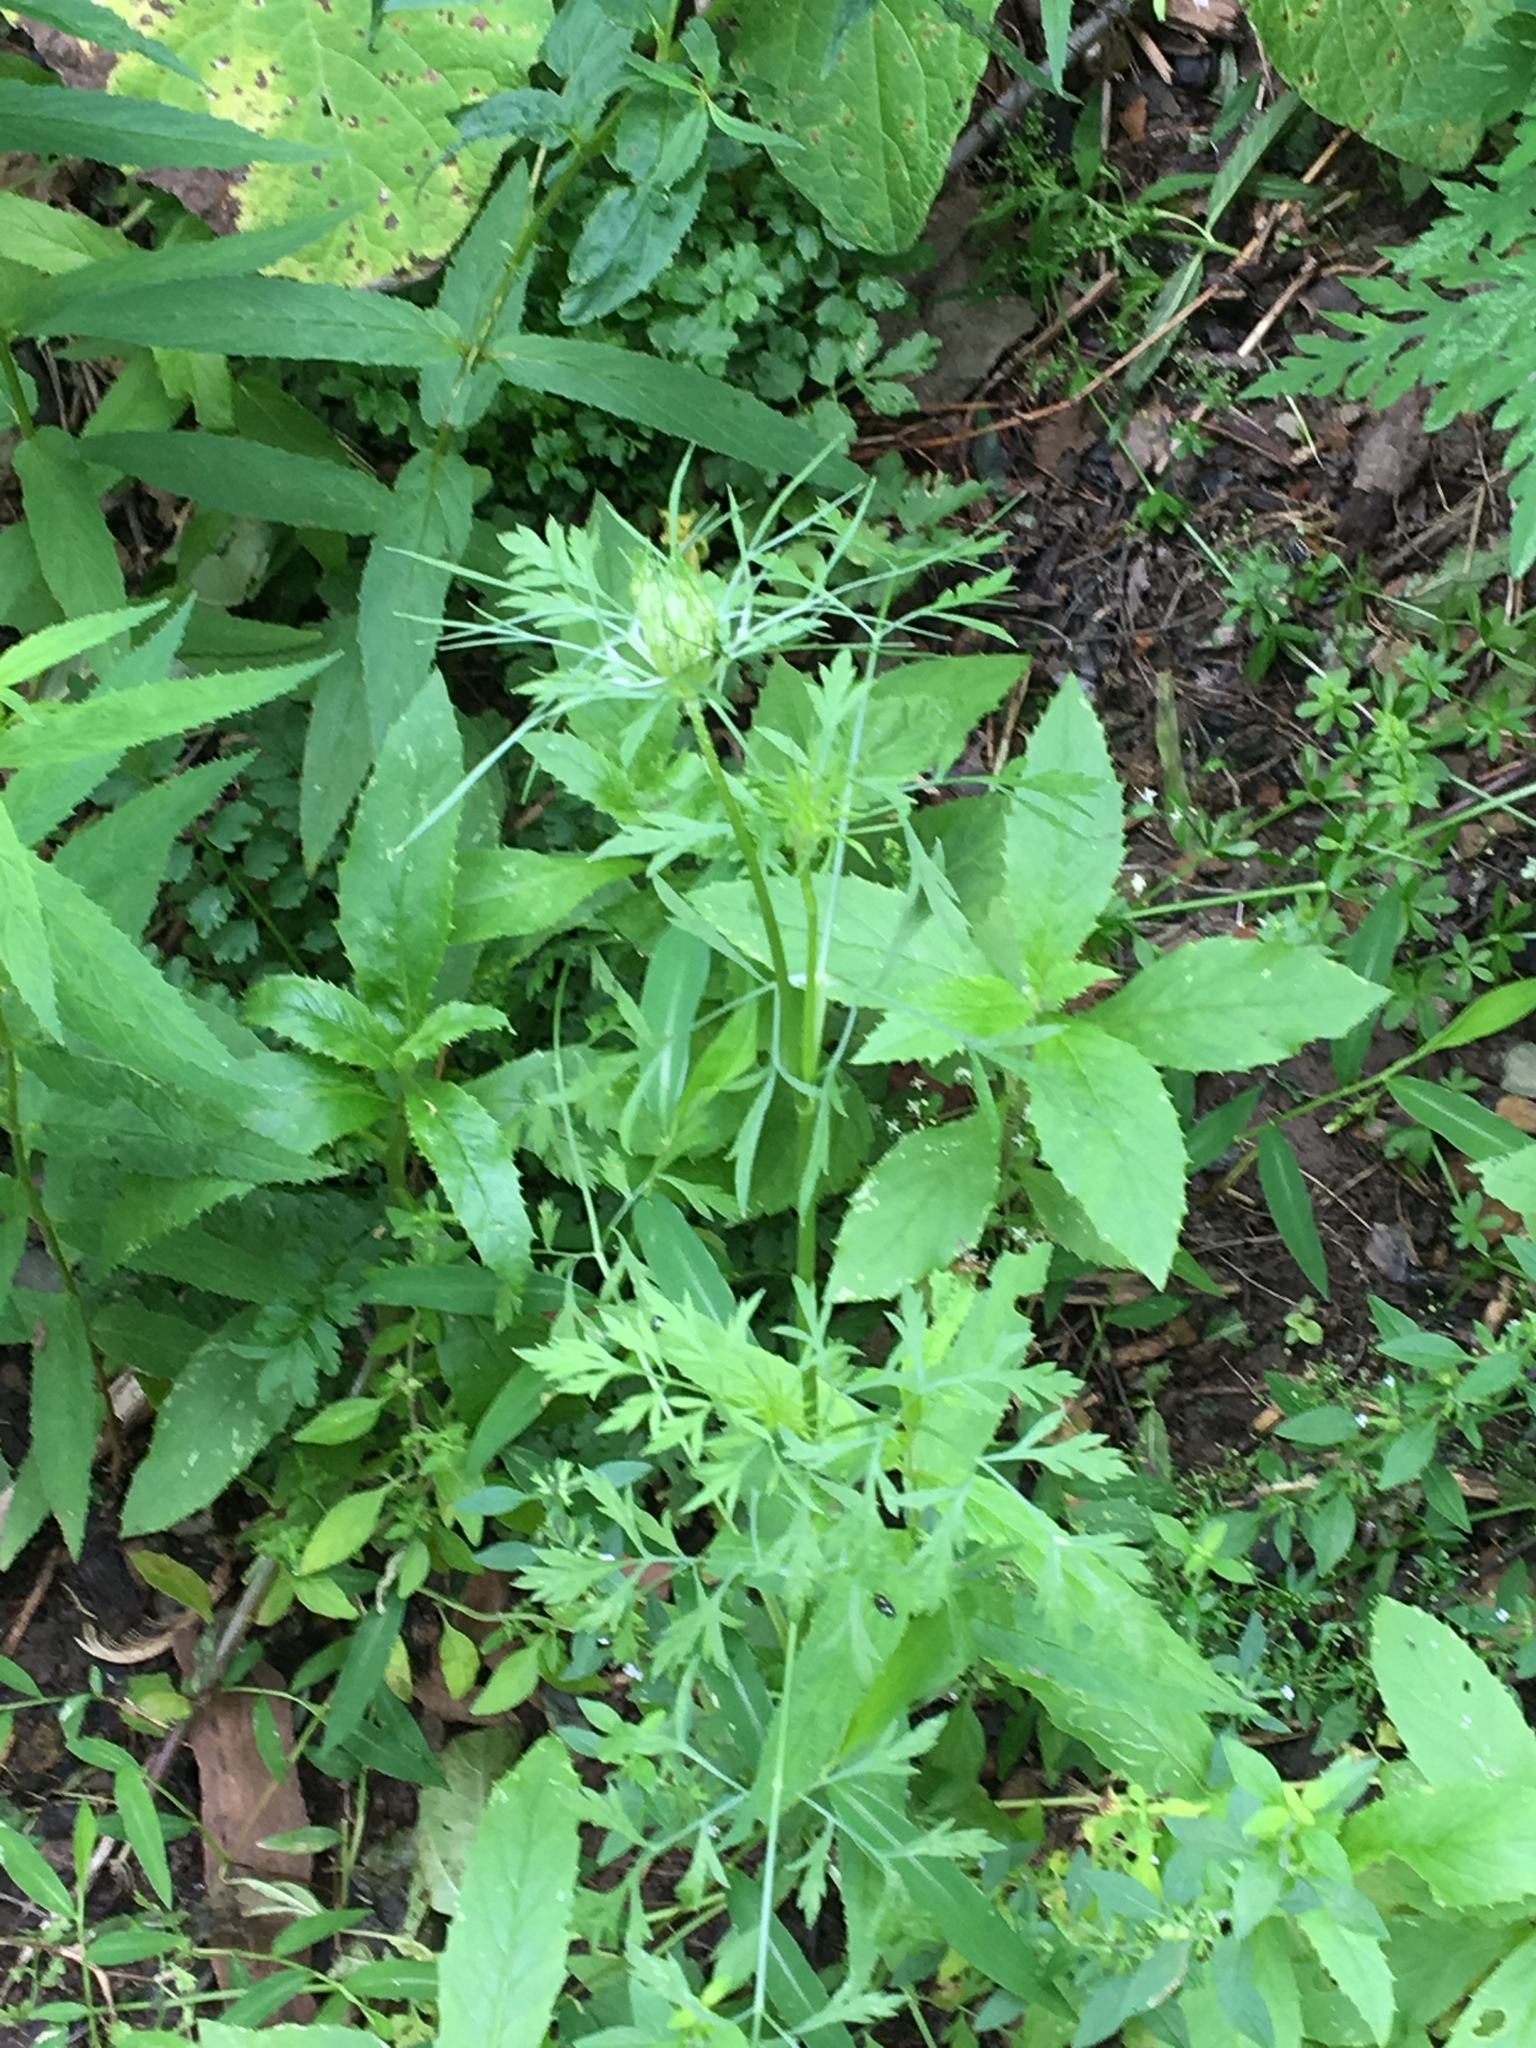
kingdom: Plantae
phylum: Tracheophyta
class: Magnoliopsida
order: Apiales
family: Apiaceae
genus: Daucus
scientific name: Daucus carota
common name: Wild carrot
